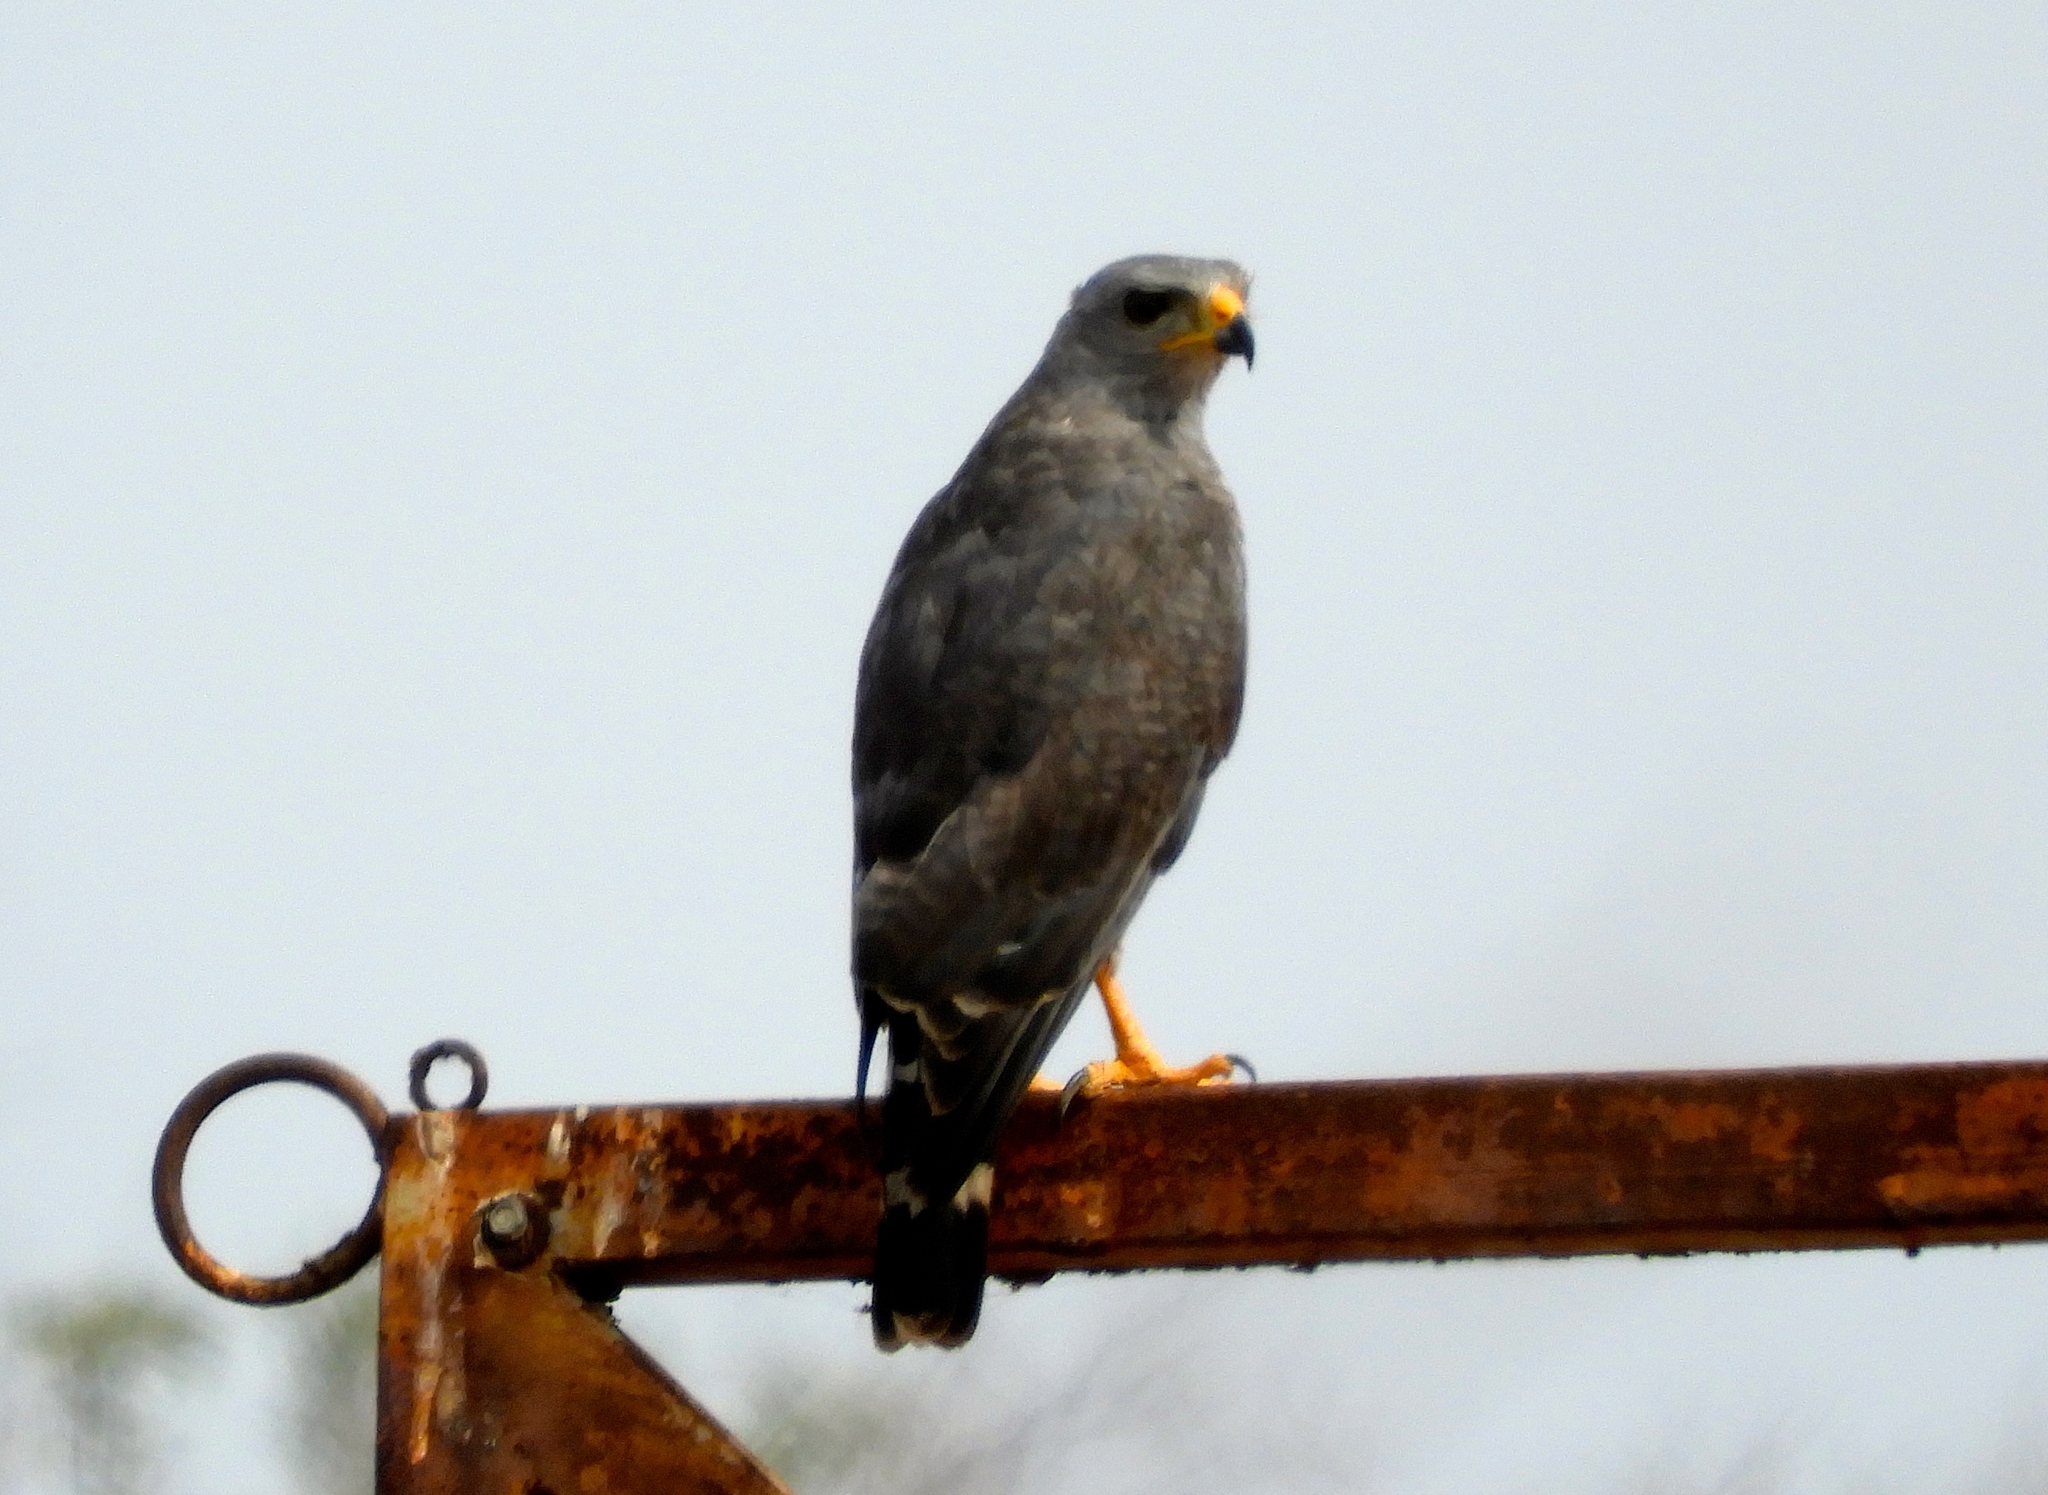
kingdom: Animalia
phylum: Chordata
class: Aves
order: Accipitriformes
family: Accipitridae
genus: Buteo
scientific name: Buteo nitidus
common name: Grey-lined hawk
